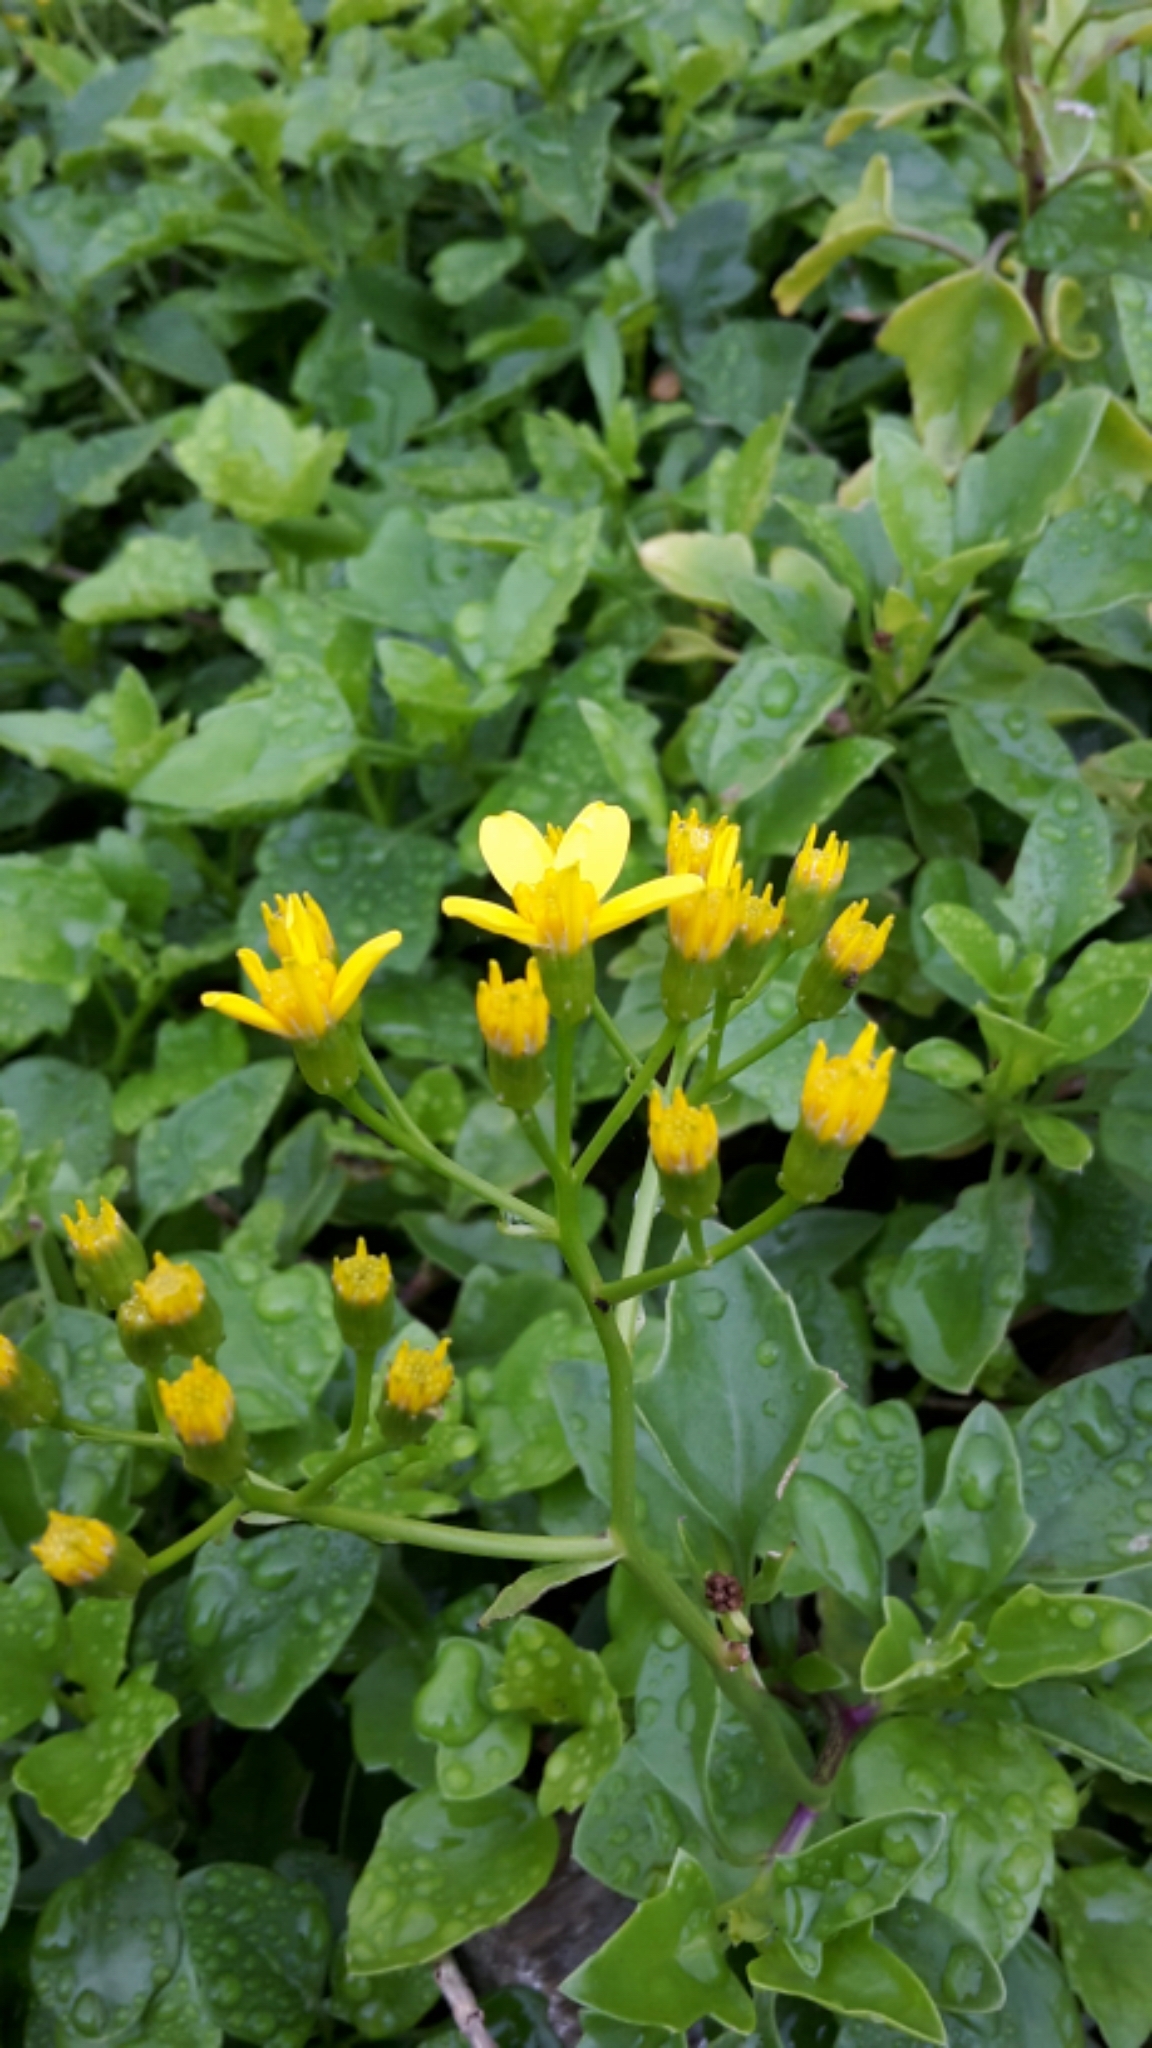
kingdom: Plantae
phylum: Tracheophyta
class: Magnoliopsida
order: Asterales
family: Asteraceae
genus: Senecio
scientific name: Senecio angulatus
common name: Climbing groundsel
